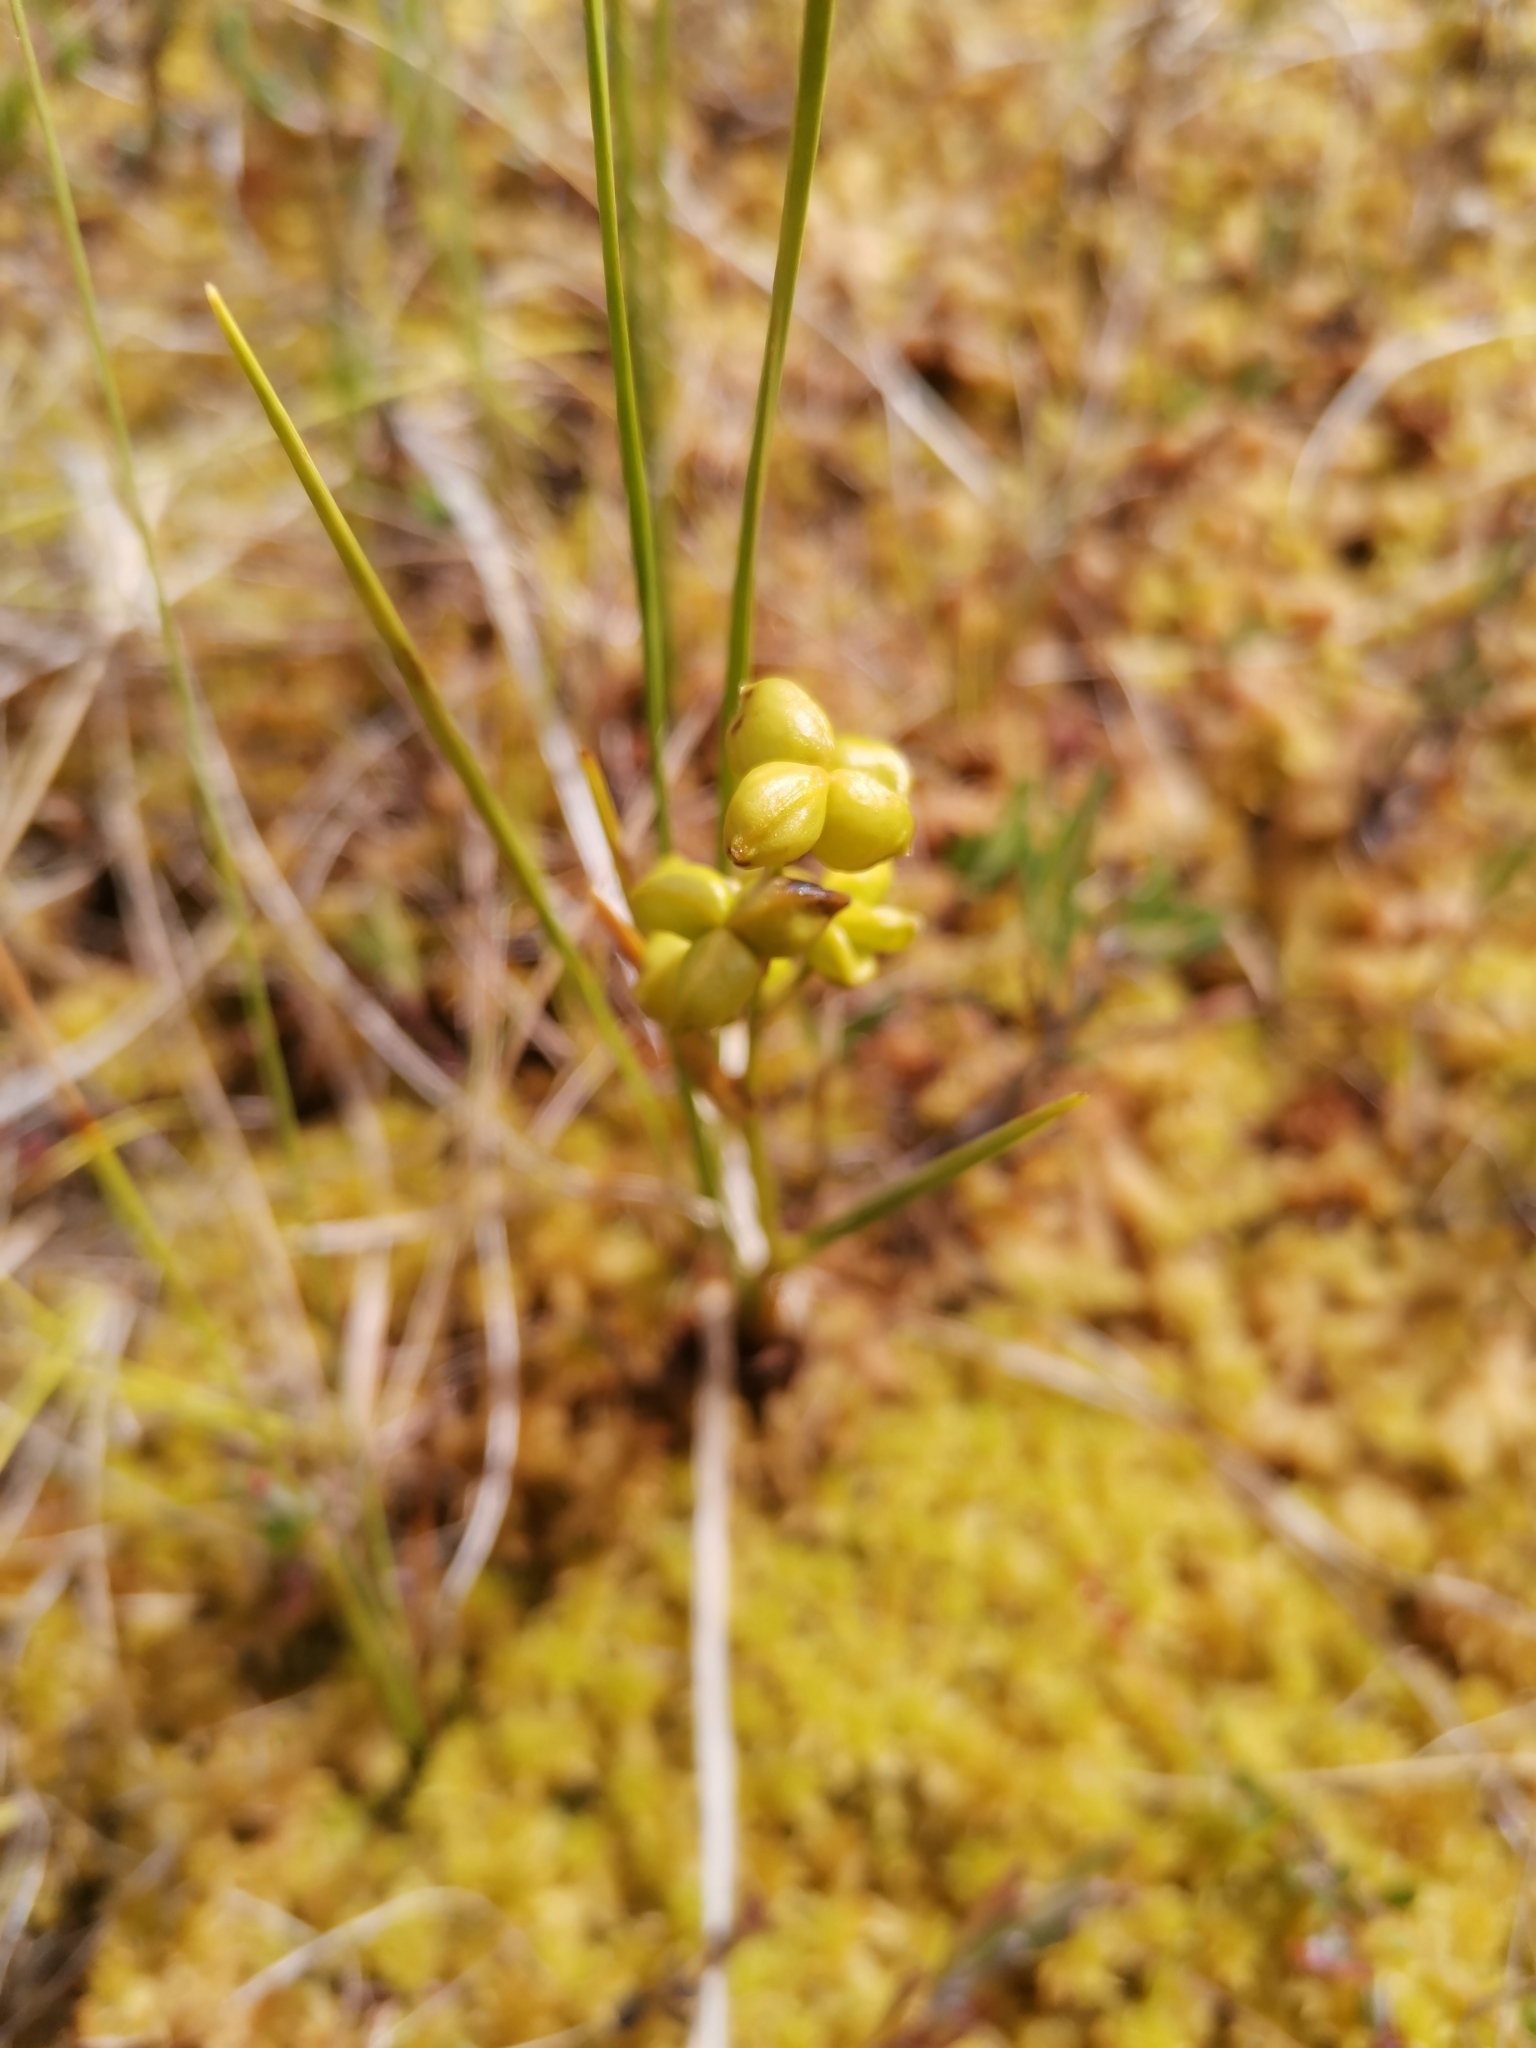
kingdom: Plantae
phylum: Tracheophyta
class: Liliopsida
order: Alismatales
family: Scheuchzeriaceae
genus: Scheuchzeria
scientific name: Scheuchzeria palustris
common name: Rannoch-rush
